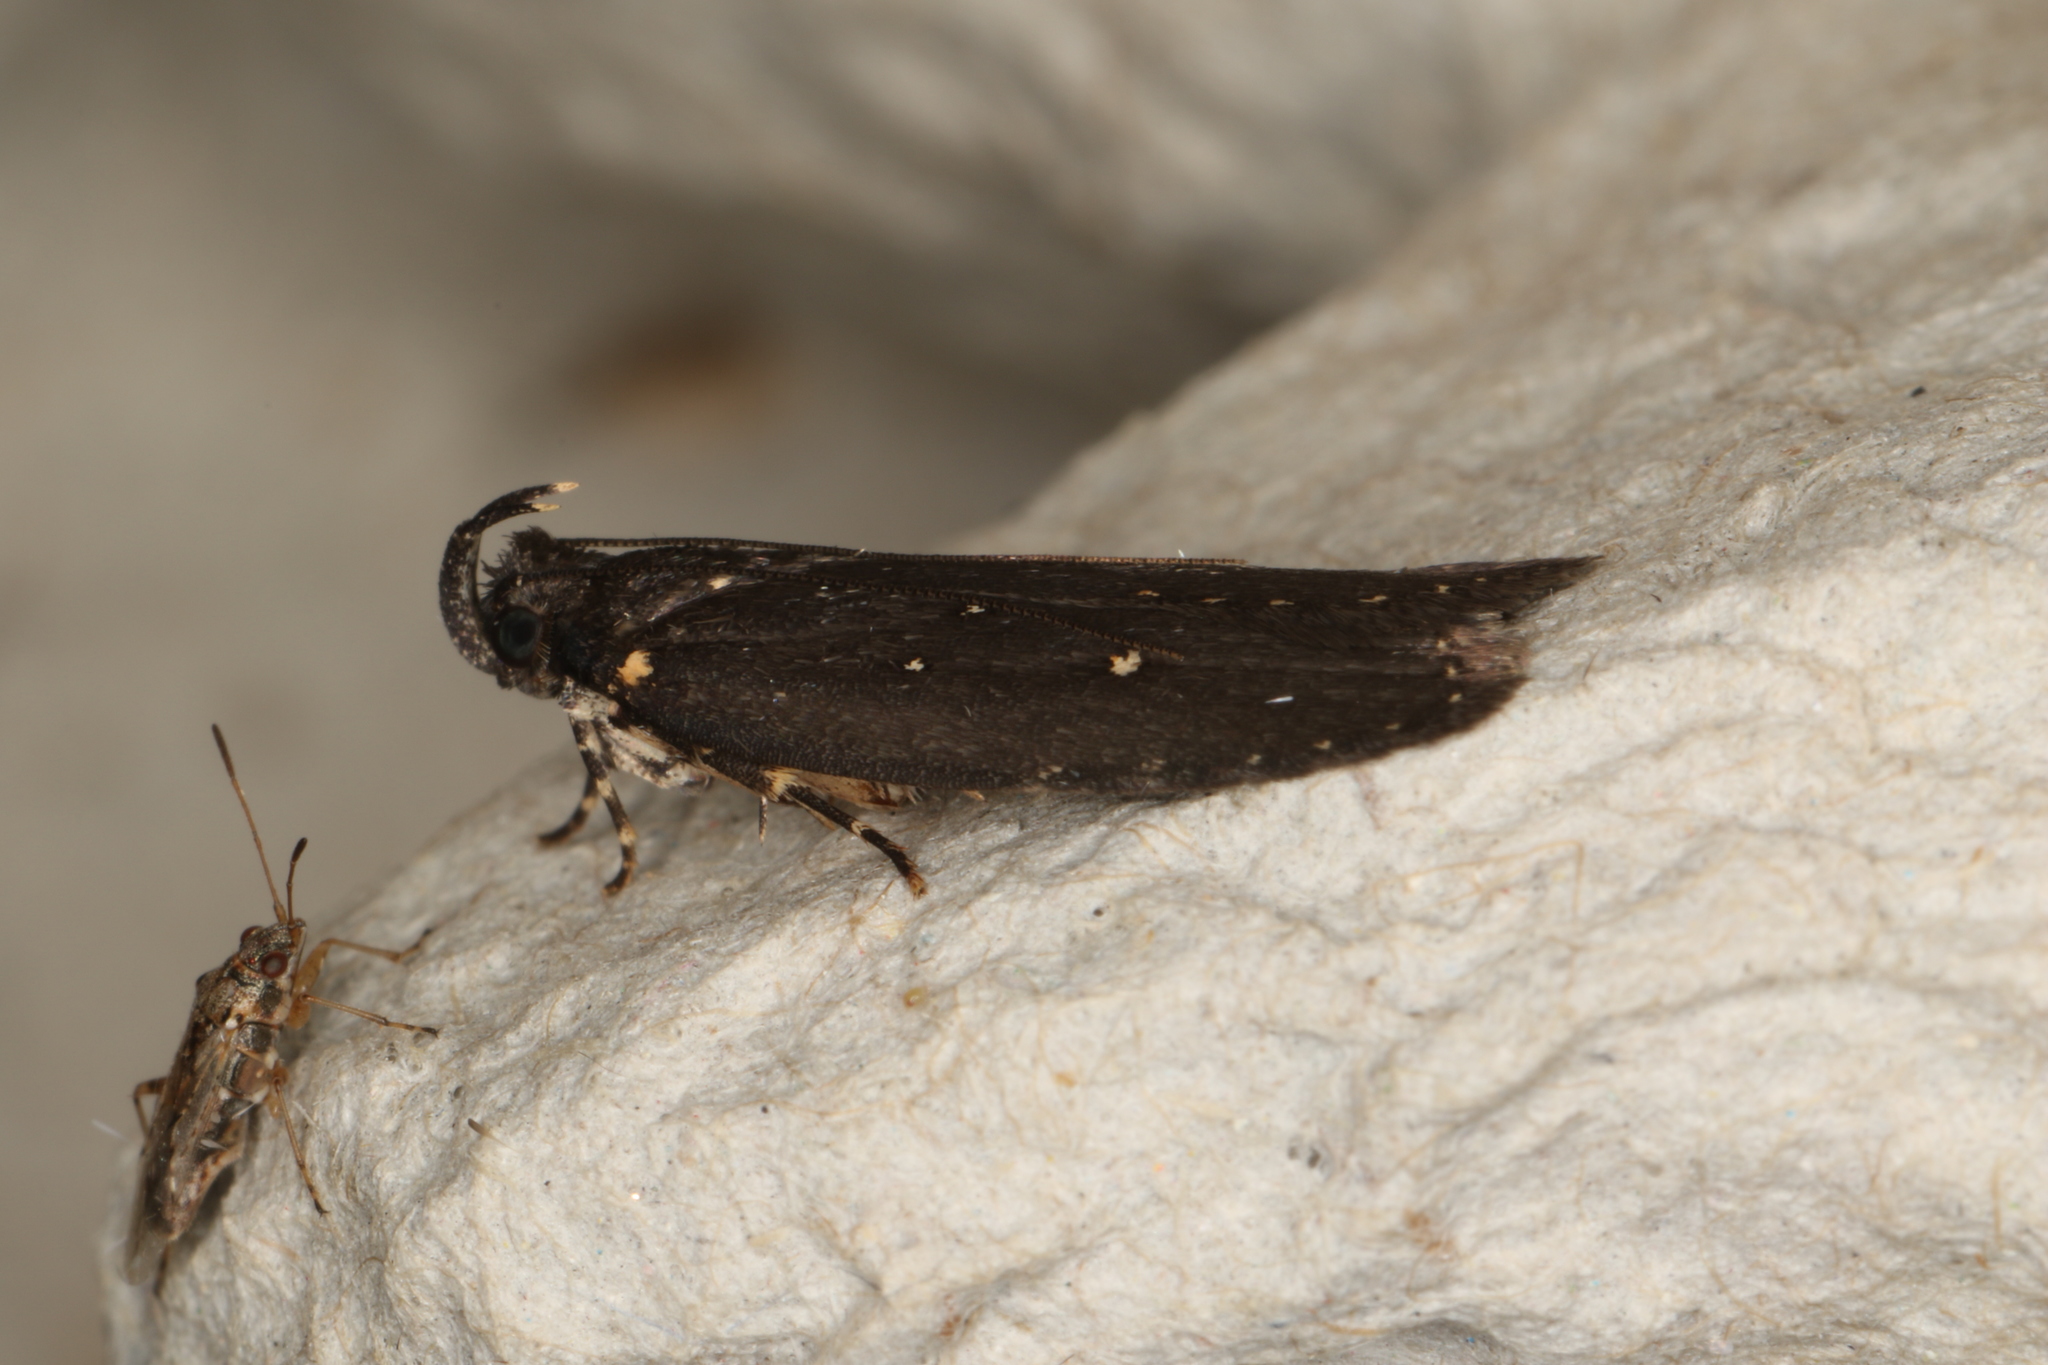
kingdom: Animalia
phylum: Arthropoda
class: Insecta
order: Lepidoptera
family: Gelechiidae
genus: Ardozyga
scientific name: Ardozyga nyctias
